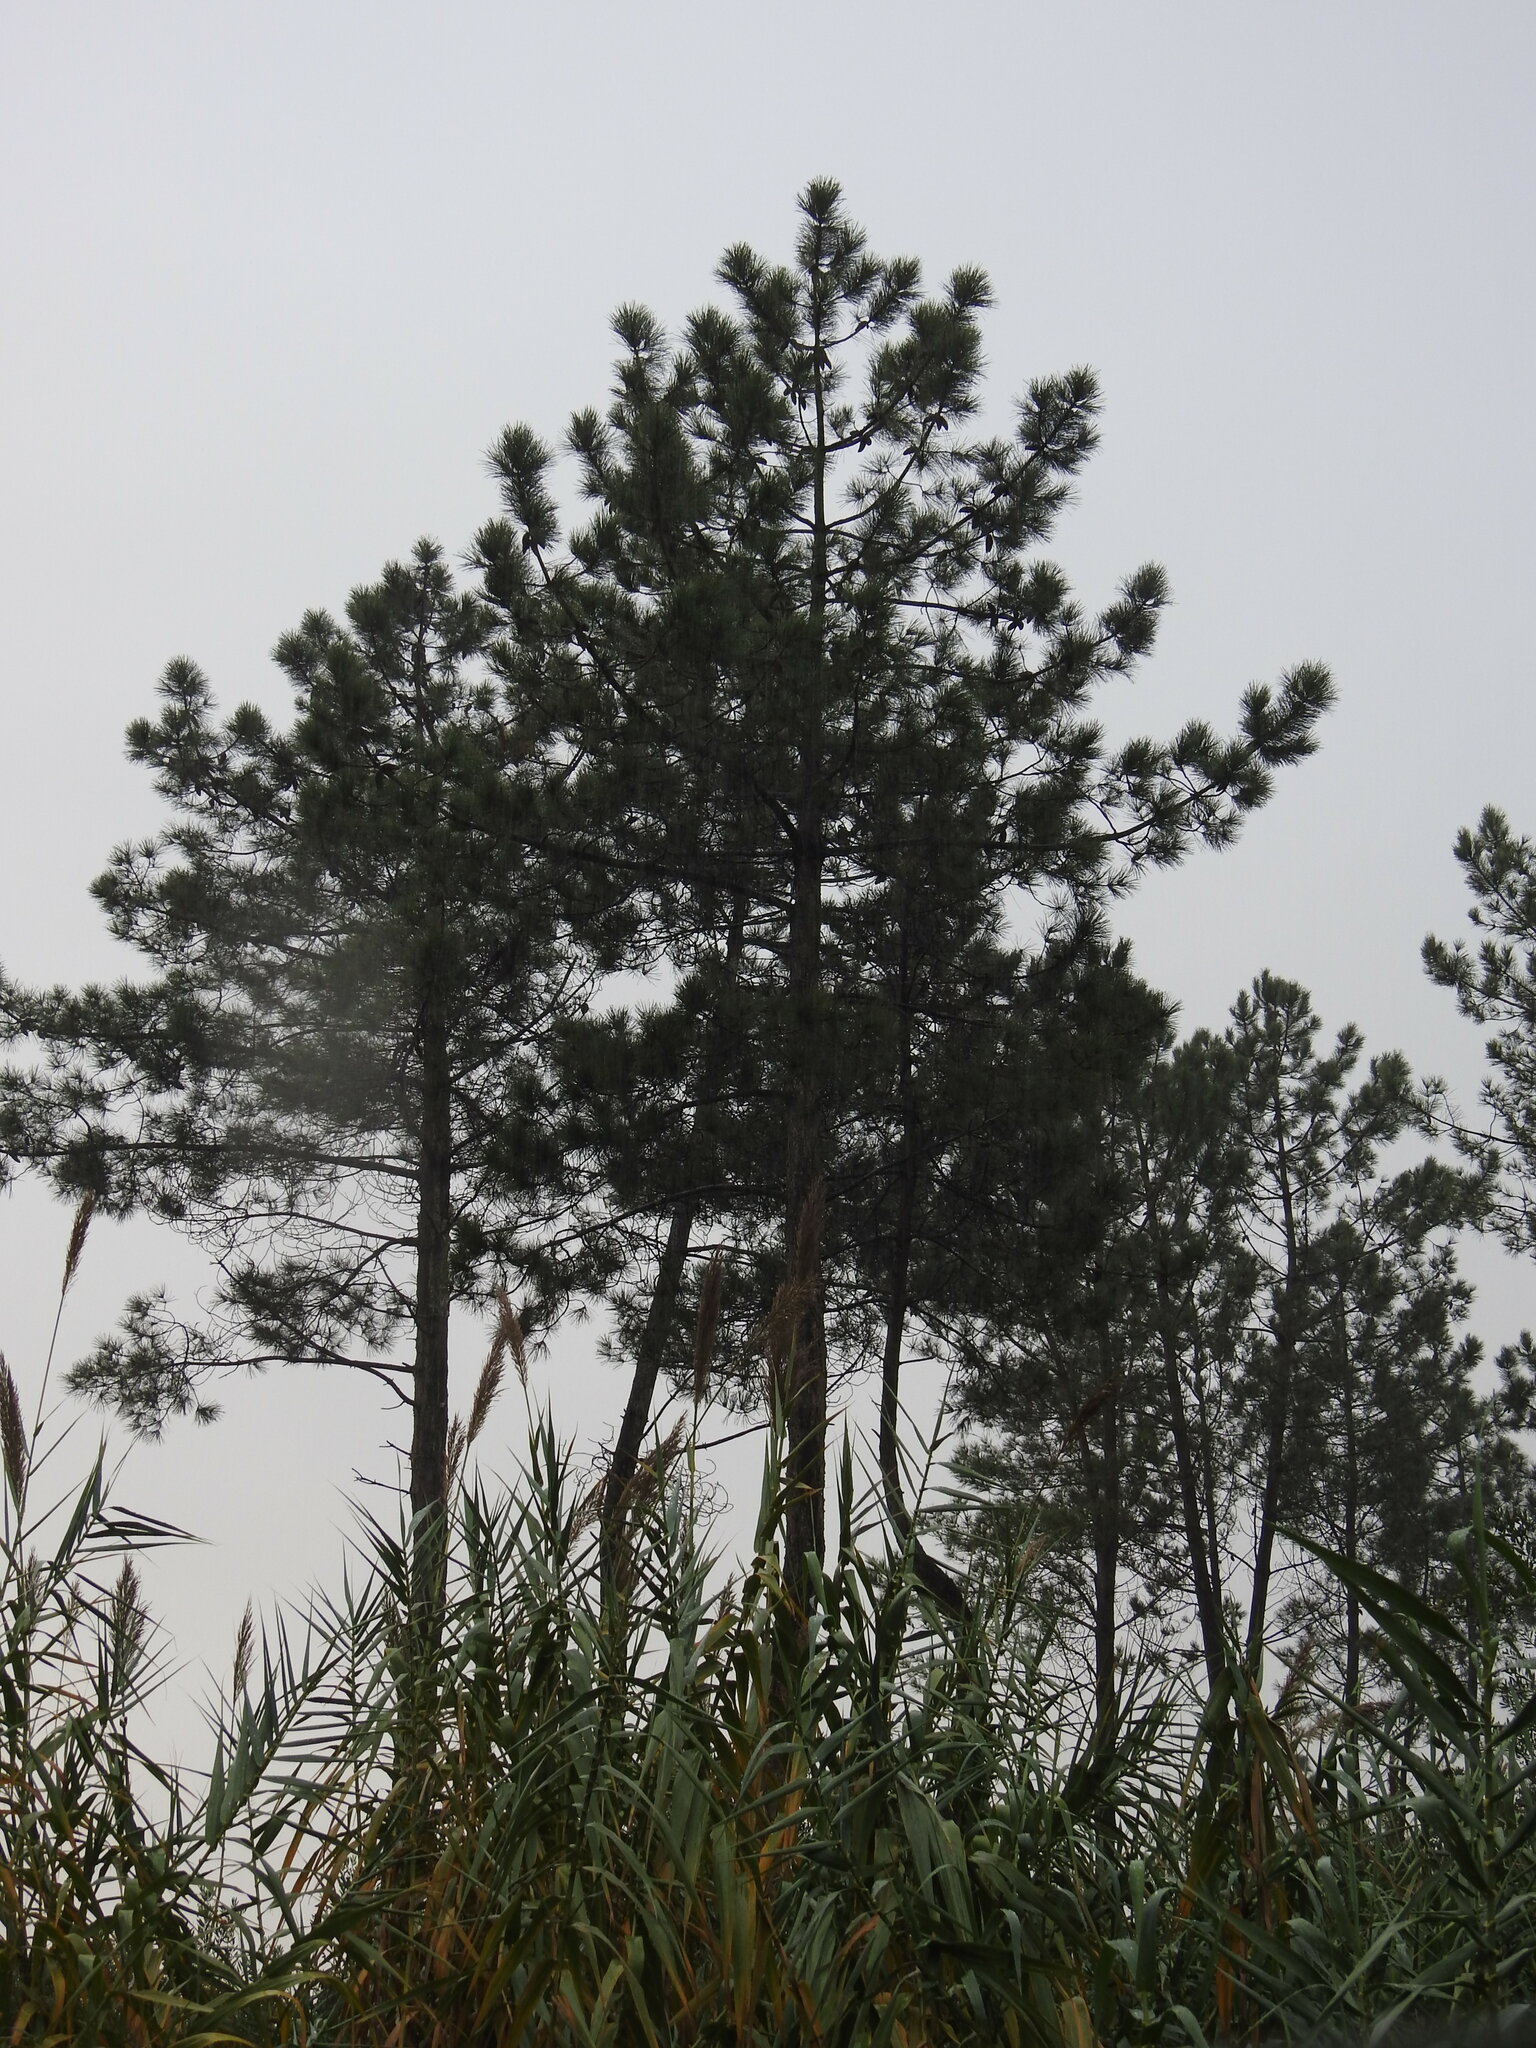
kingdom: Plantae
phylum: Tracheophyta
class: Pinopsida
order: Pinales
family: Pinaceae
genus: Pinus
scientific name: Pinus pinaster
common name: Maritime pine
